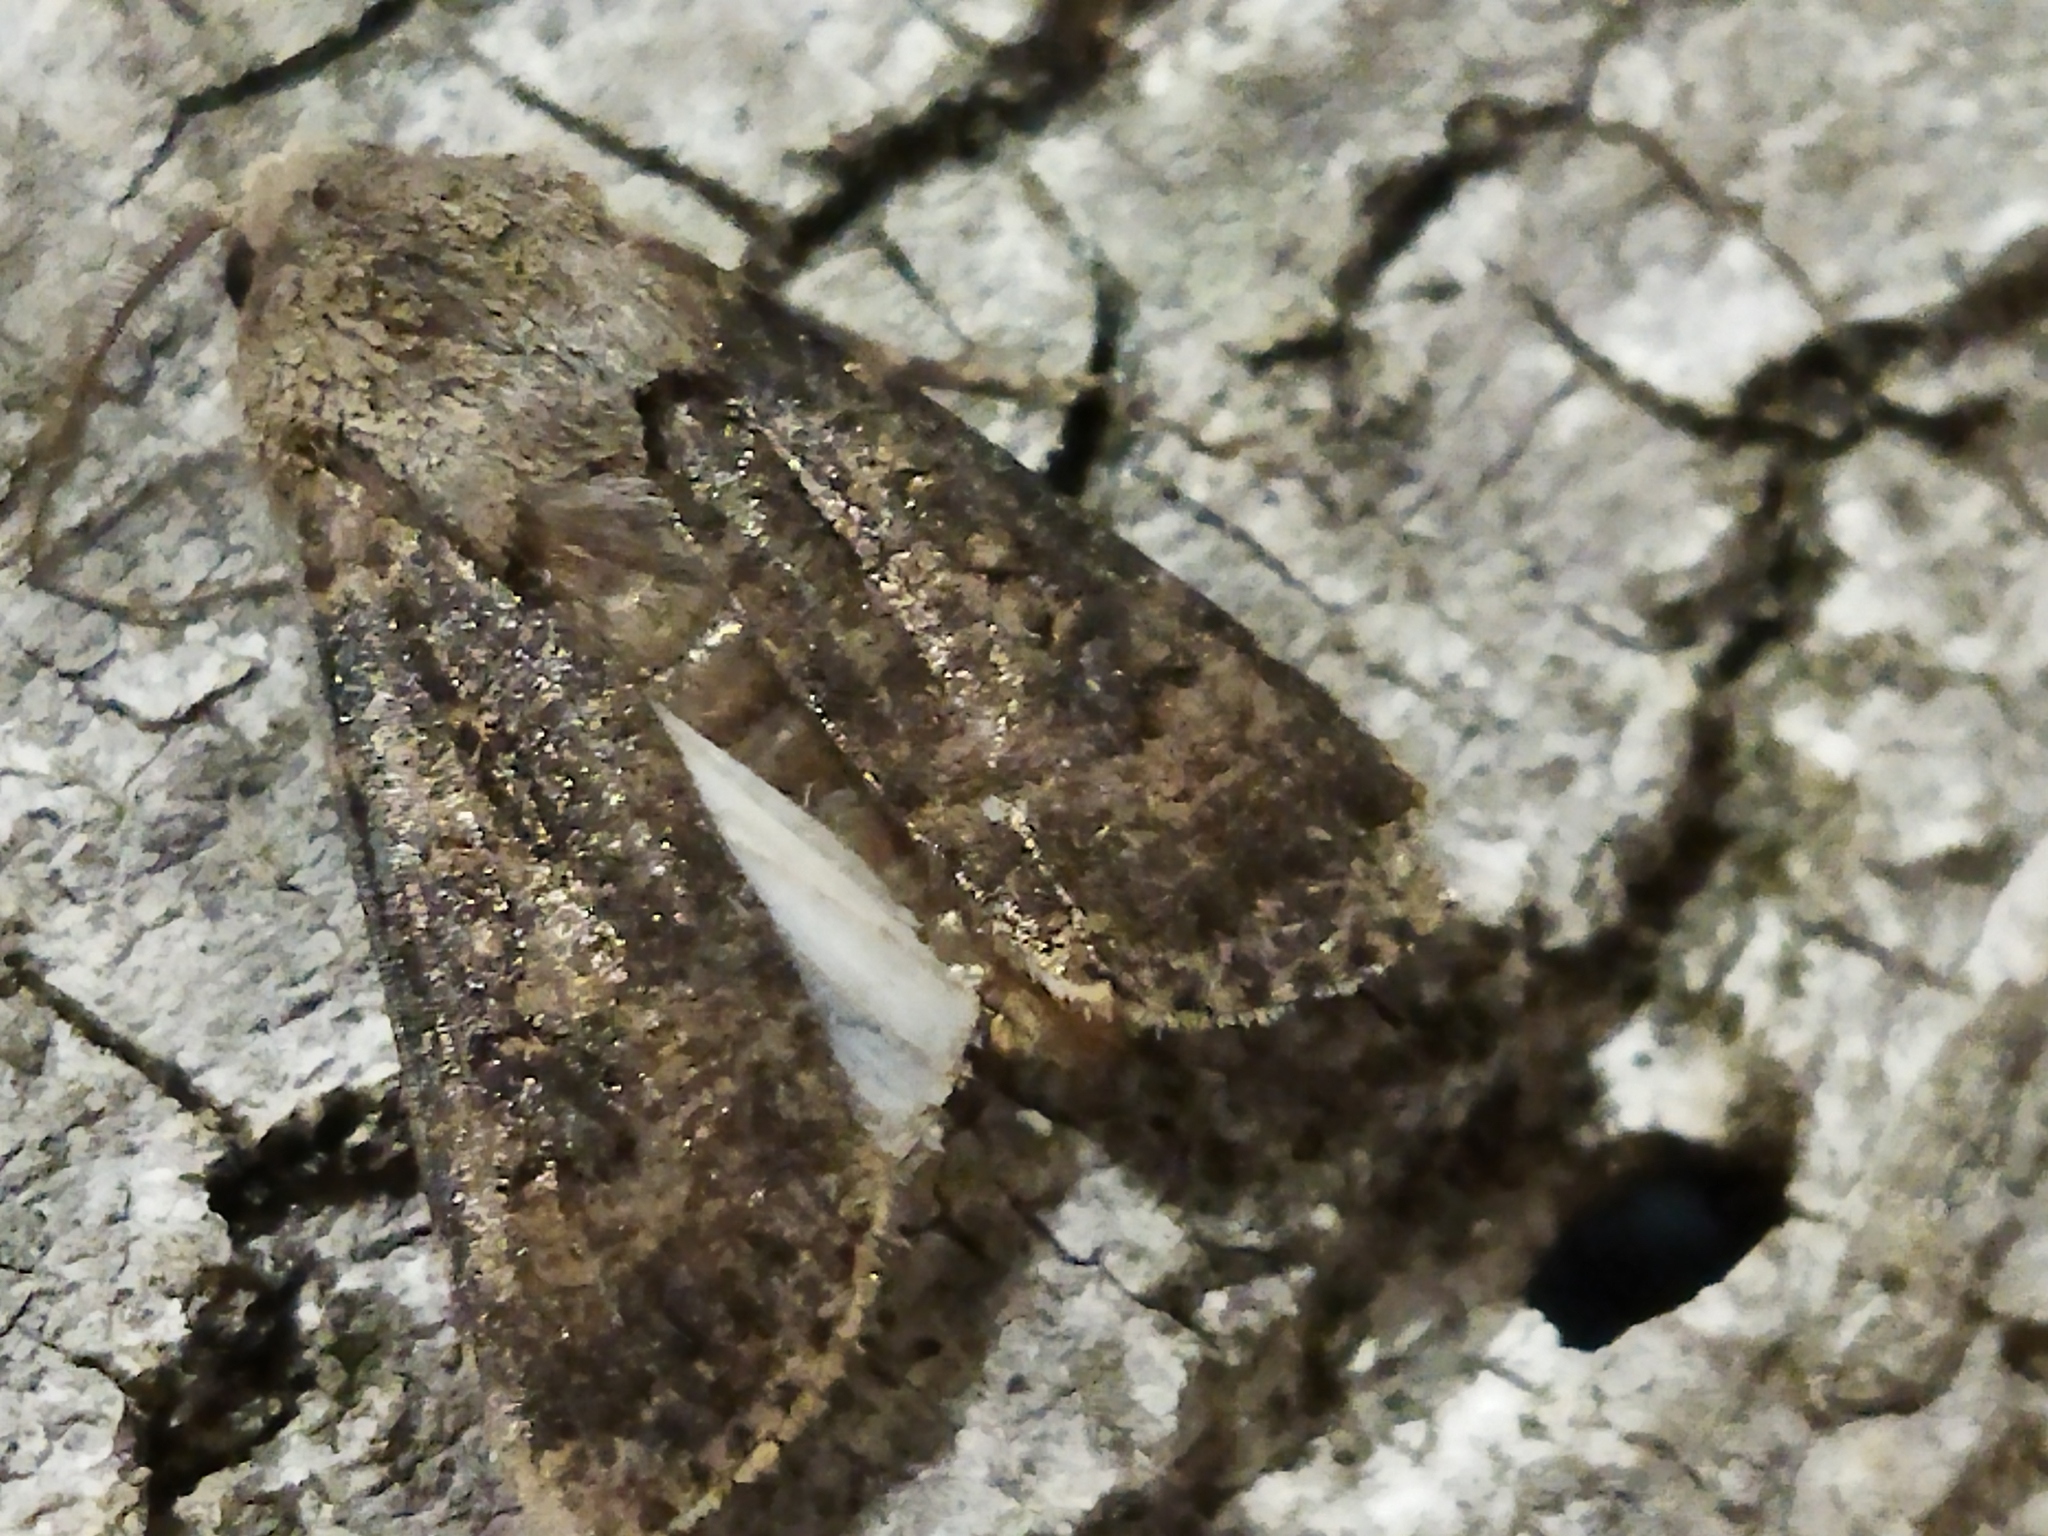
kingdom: Animalia
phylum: Arthropoda
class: Insecta
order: Lepidoptera
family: Noctuidae
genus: Agrotis
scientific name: Agrotis segetum
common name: Turnip moth
